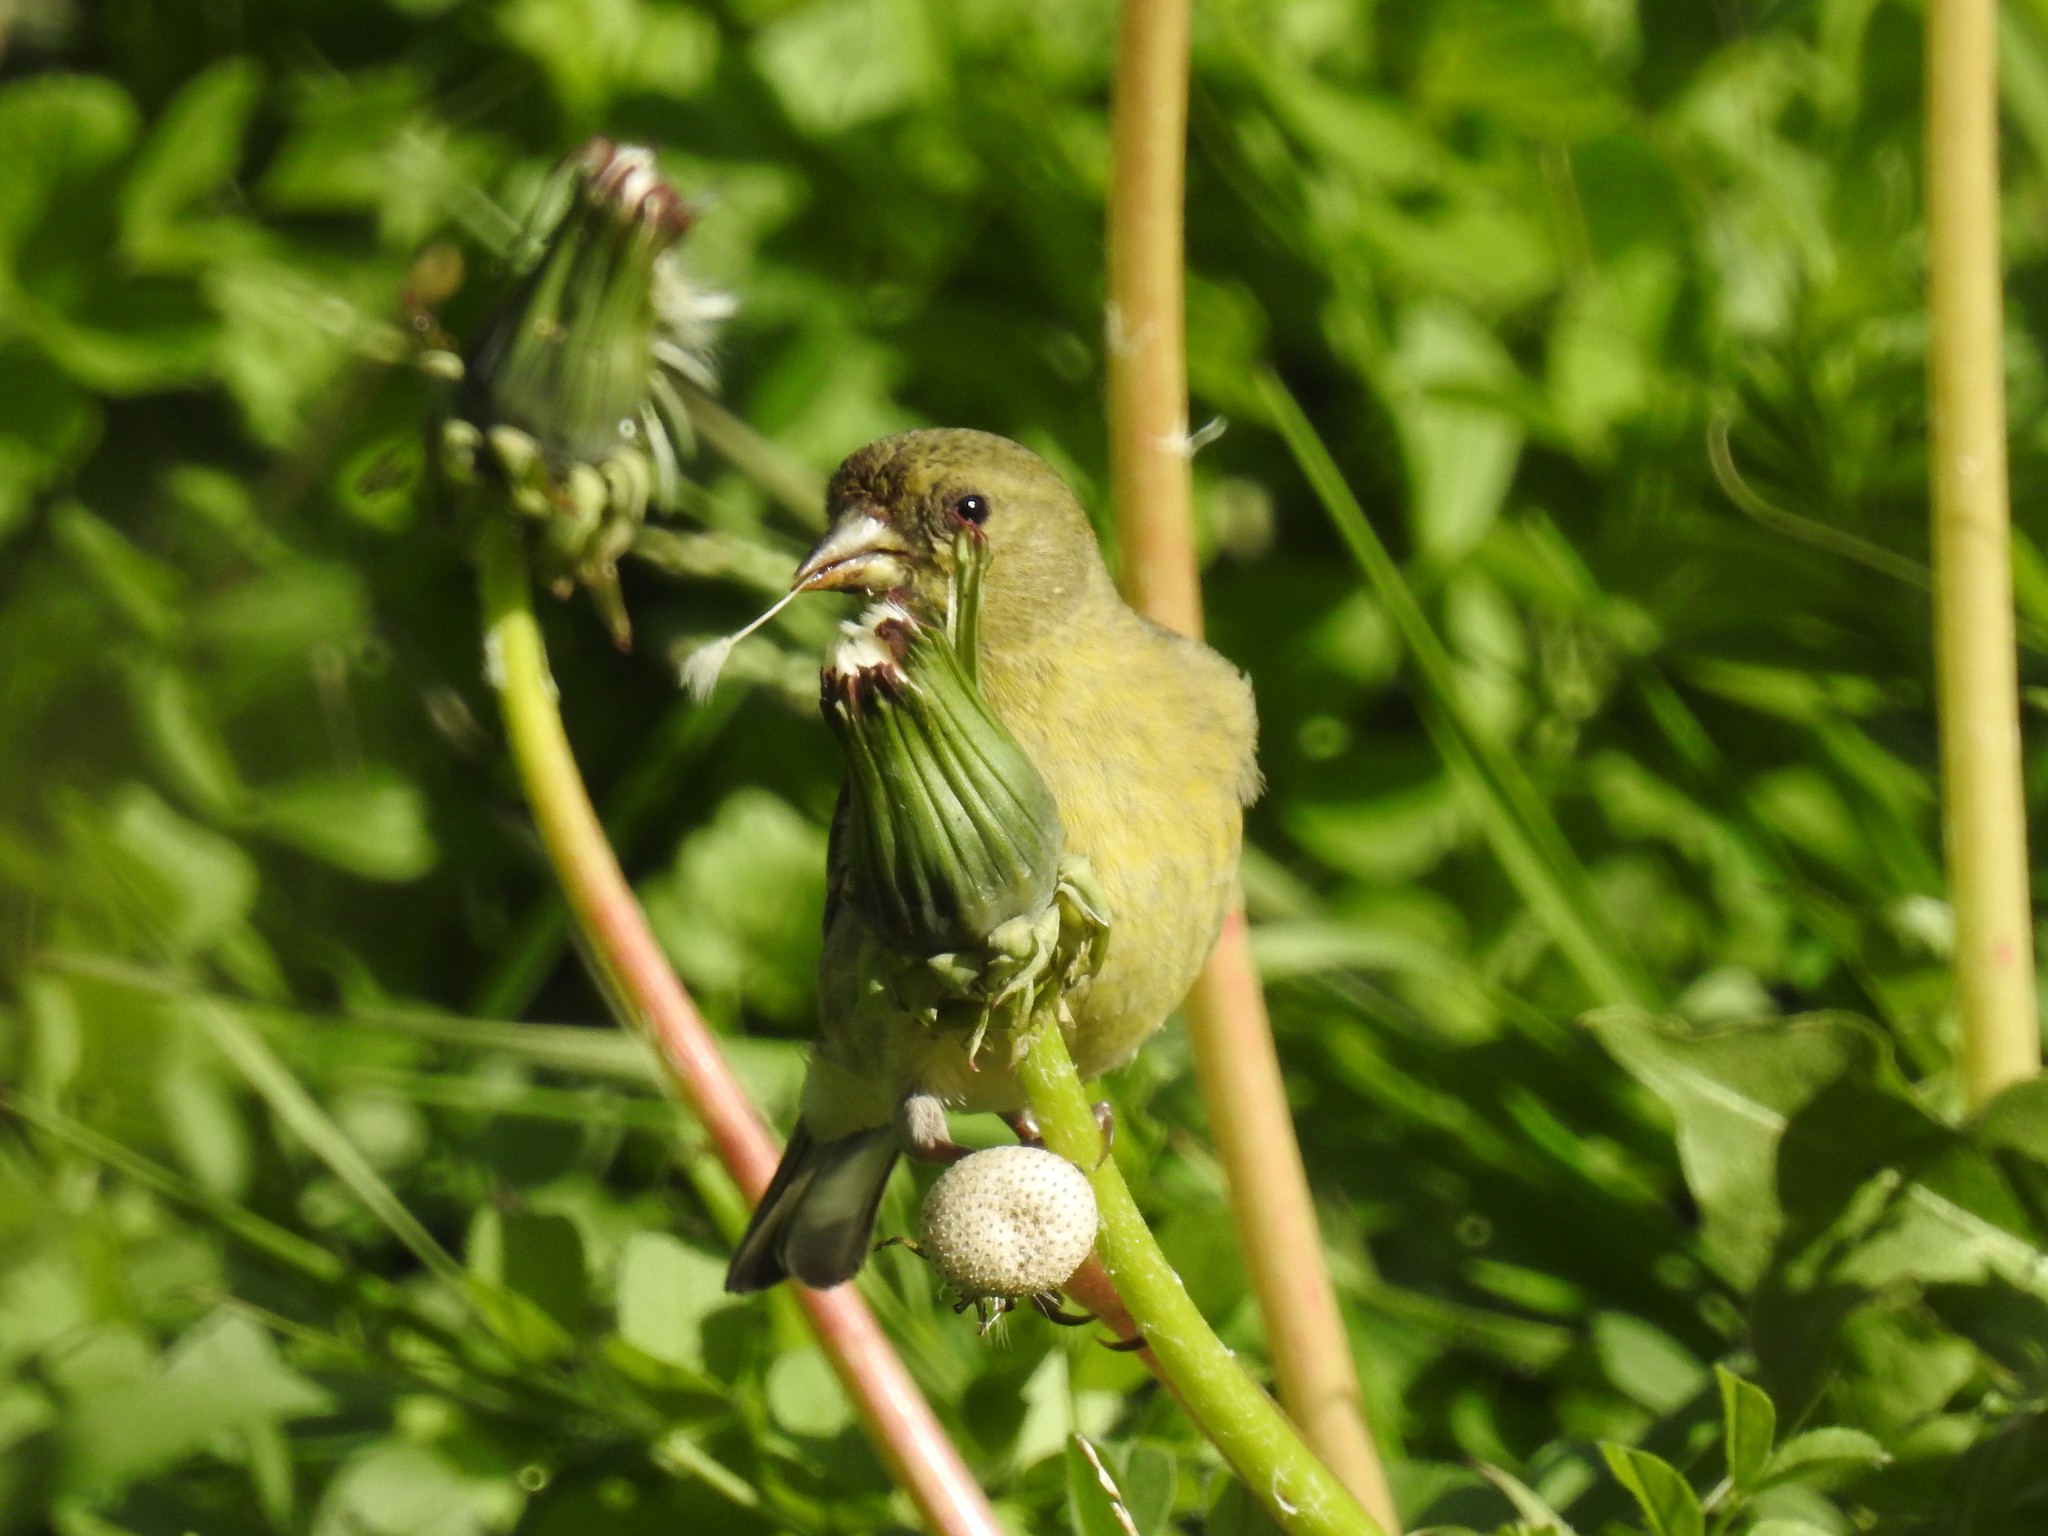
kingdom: Animalia
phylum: Chordata
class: Aves
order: Passeriformes
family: Fringillidae
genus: Spinus
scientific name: Spinus psaltria
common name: Lesser goldfinch
